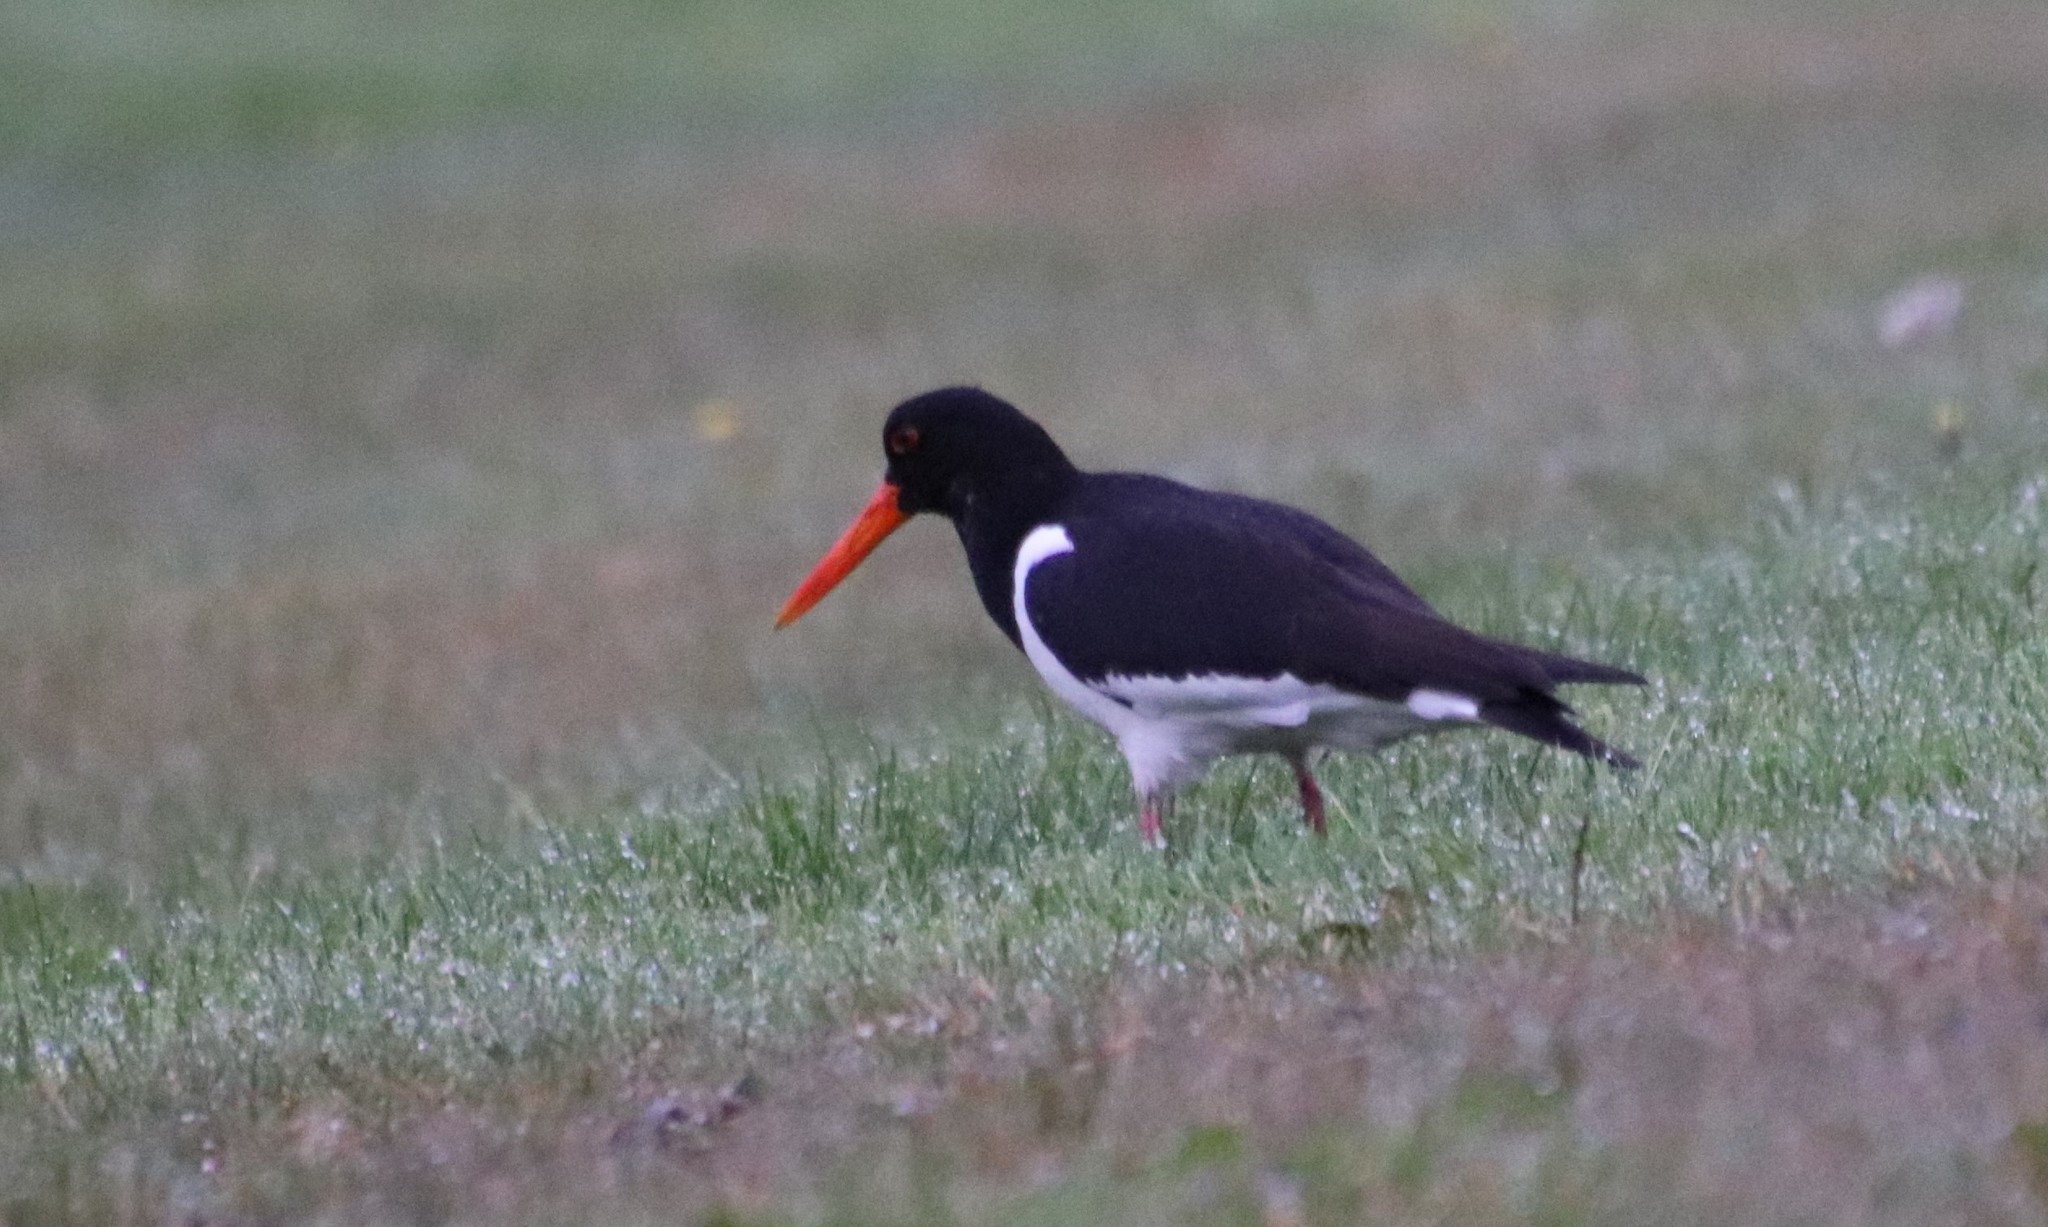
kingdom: Animalia
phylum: Chordata
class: Aves
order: Charadriiformes
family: Haematopodidae
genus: Haematopus
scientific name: Haematopus ostralegus
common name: Eurasian oystercatcher
